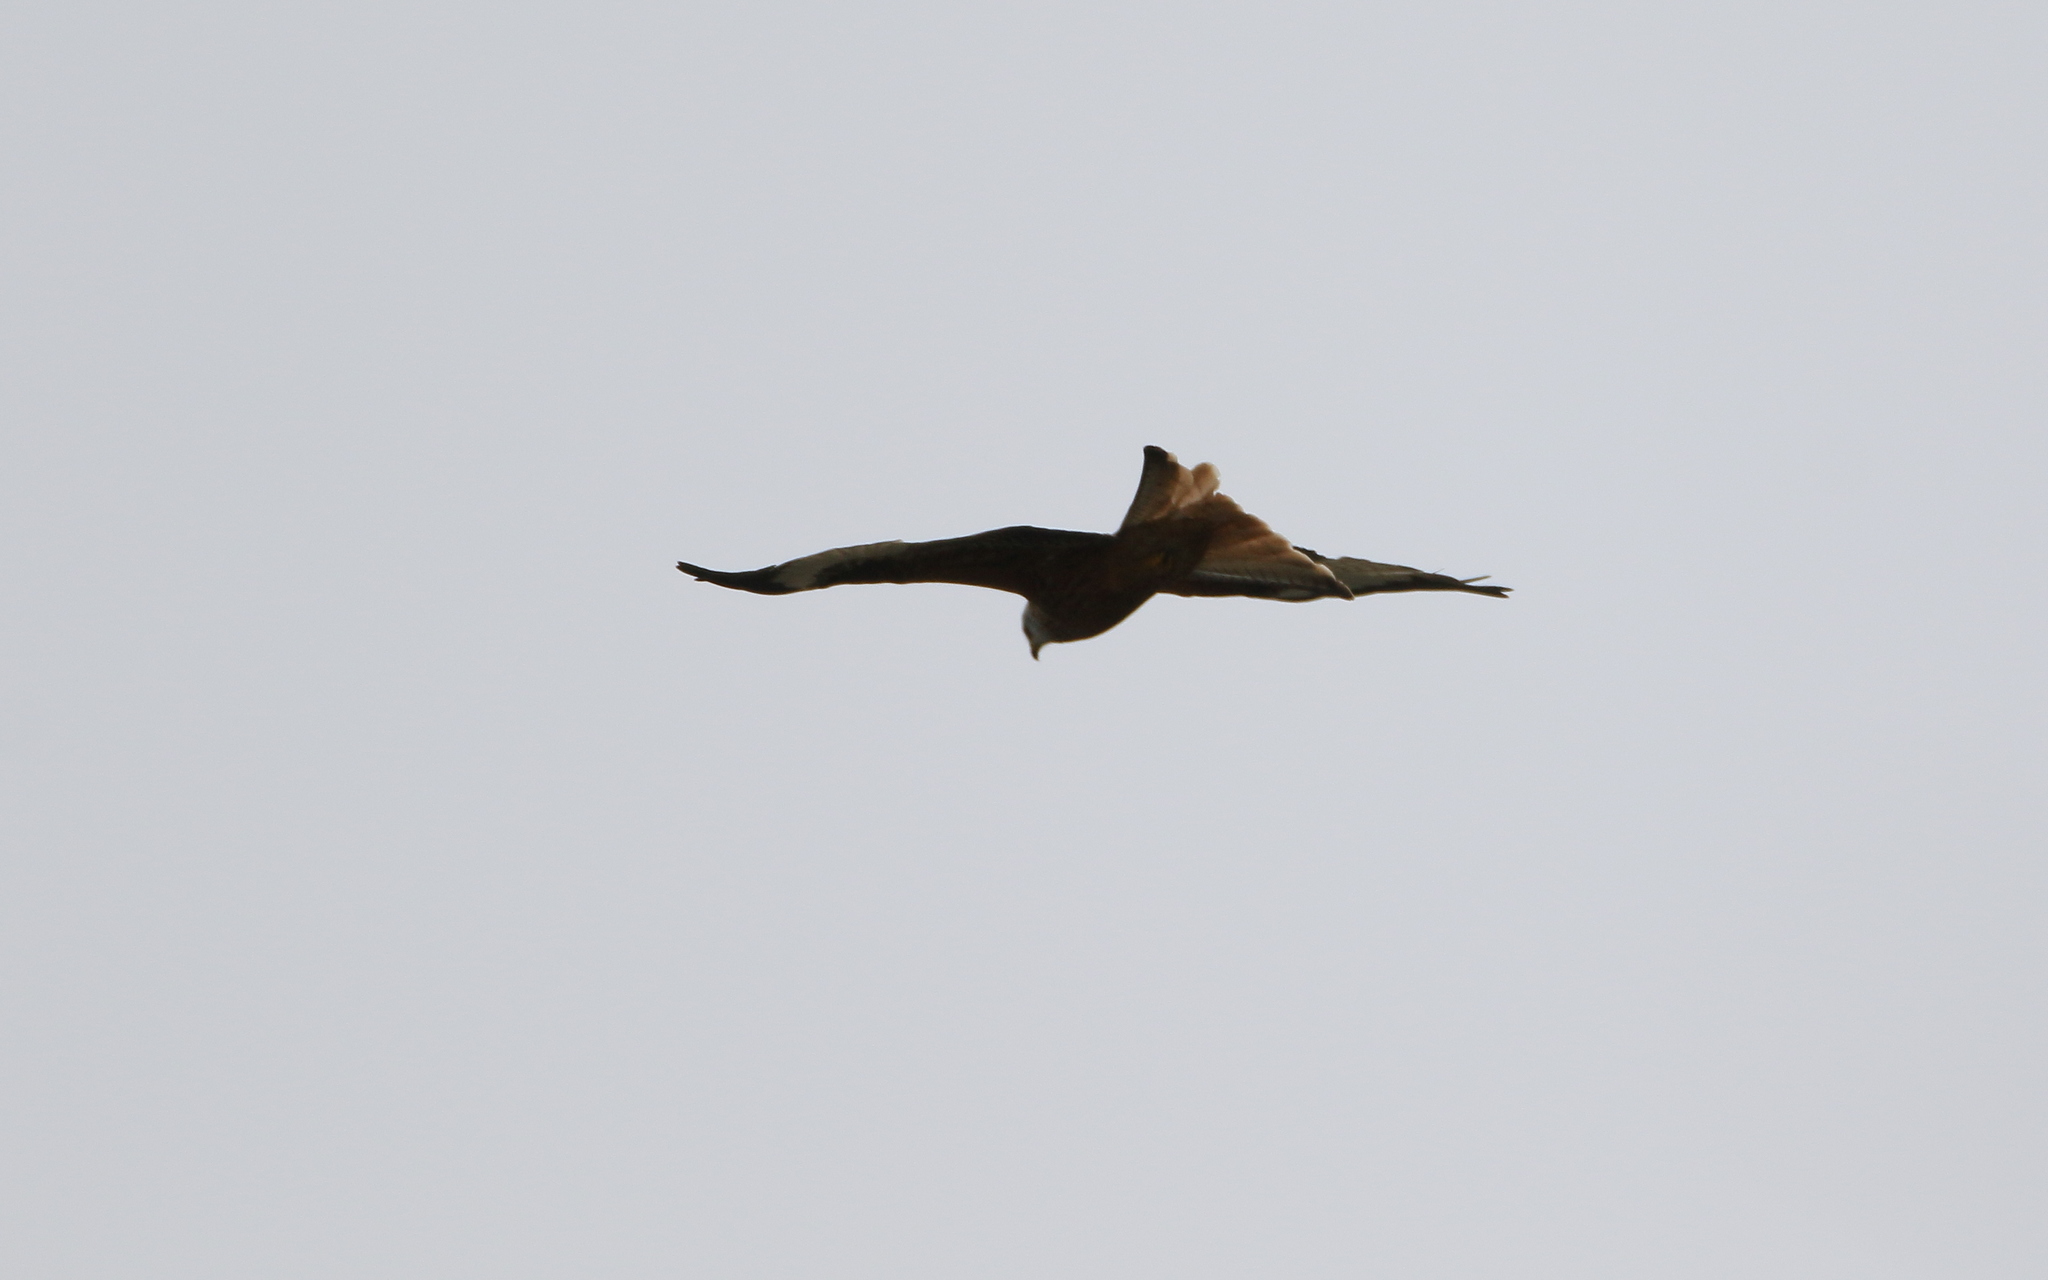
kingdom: Animalia
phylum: Chordata
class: Aves
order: Accipitriformes
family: Accipitridae
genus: Milvus
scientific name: Milvus milvus
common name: Red kite
